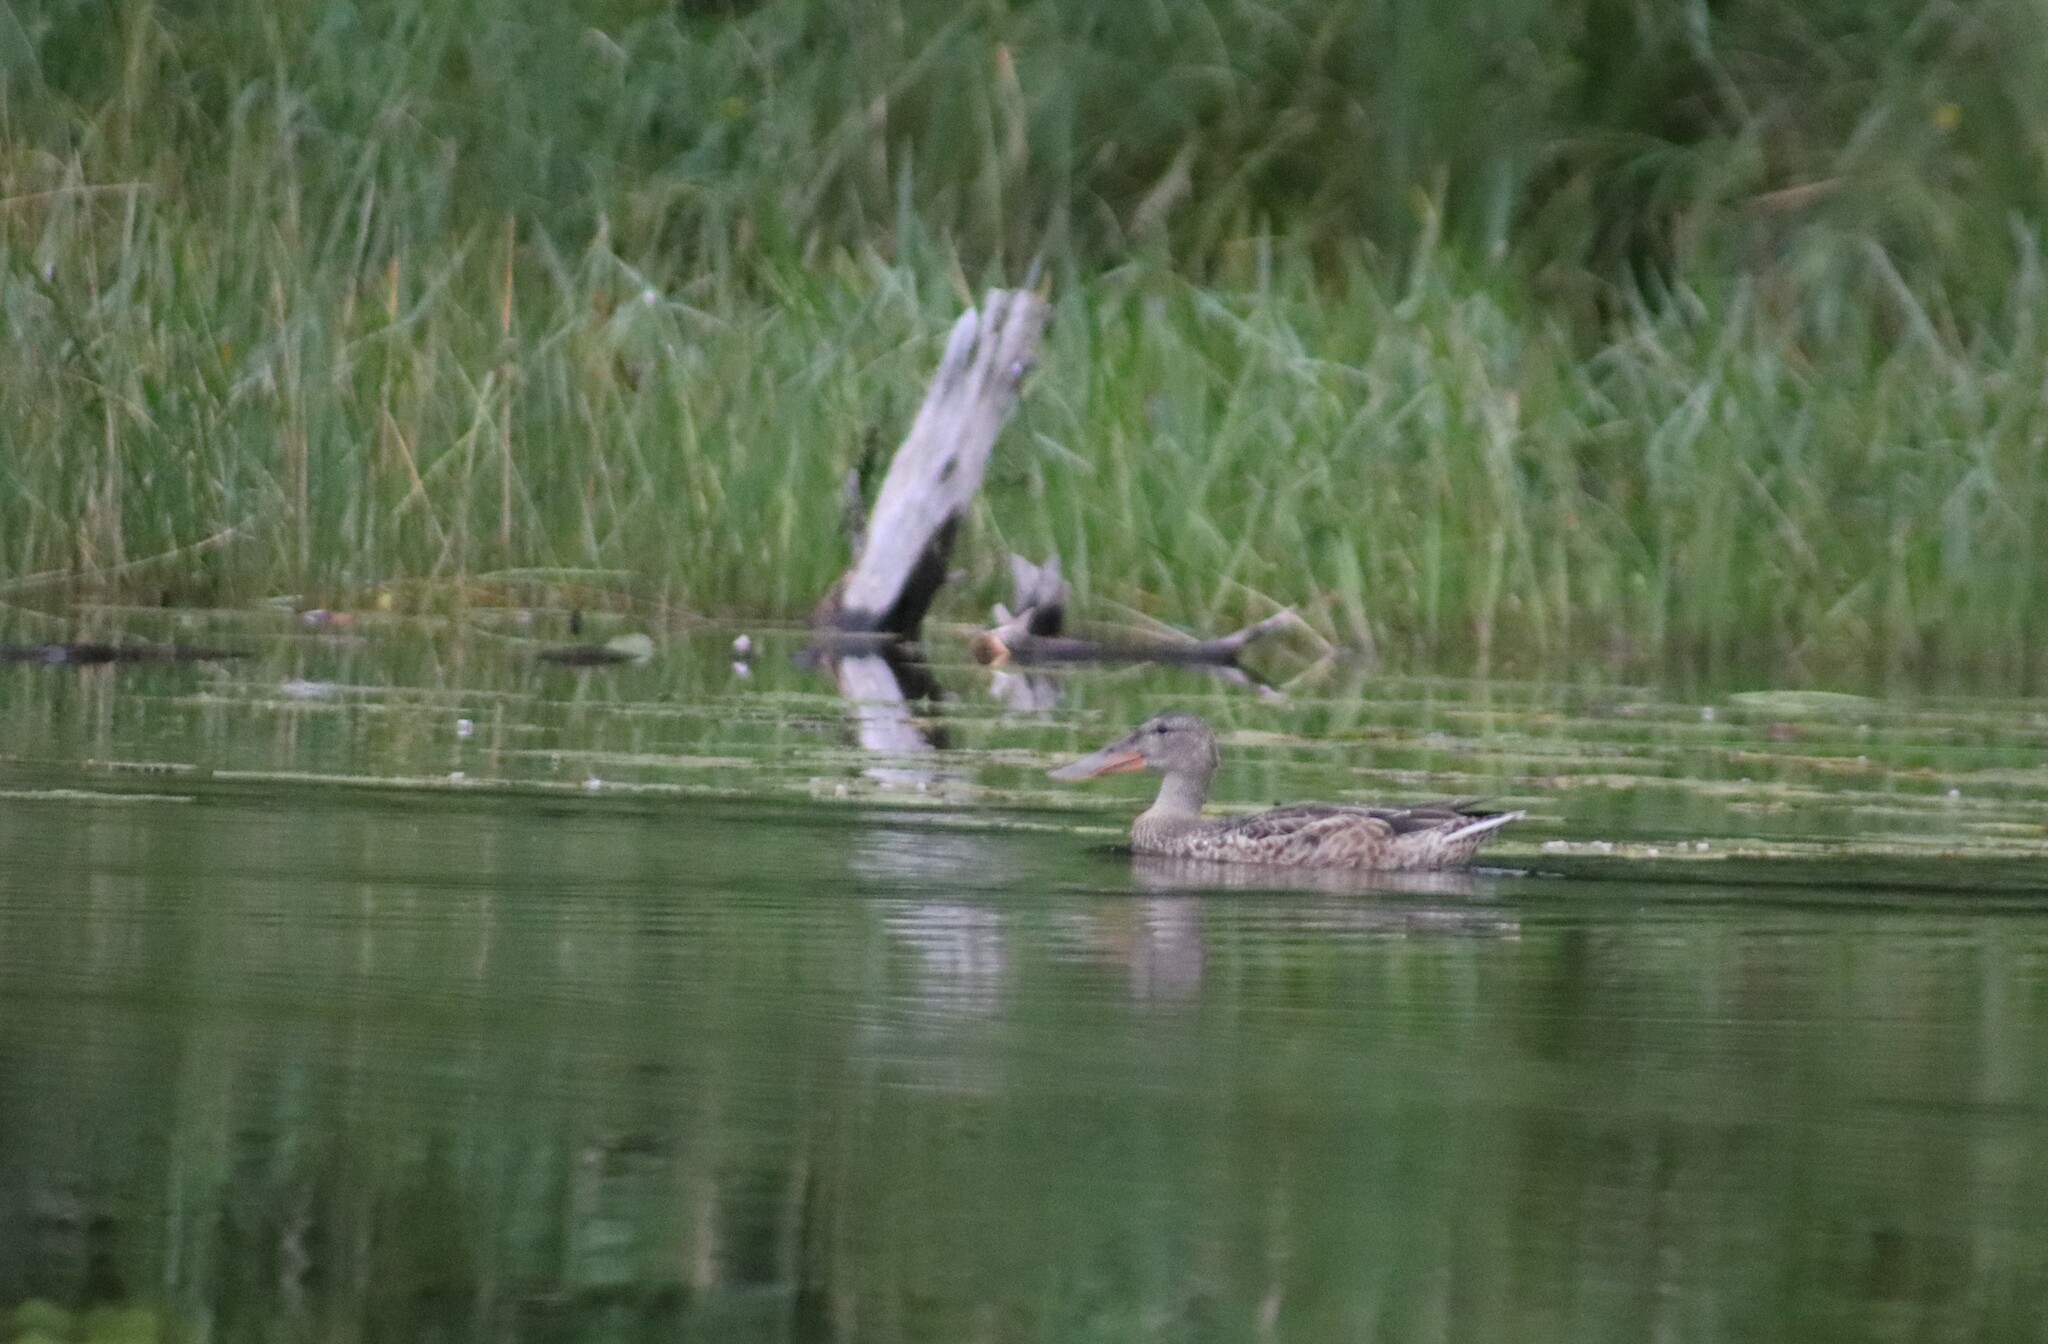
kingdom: Animalia
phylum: Chordata
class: Aves
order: Anseriformes
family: Anatidae
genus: Spatula
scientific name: Spatula clypeata
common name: Northern shoveler
